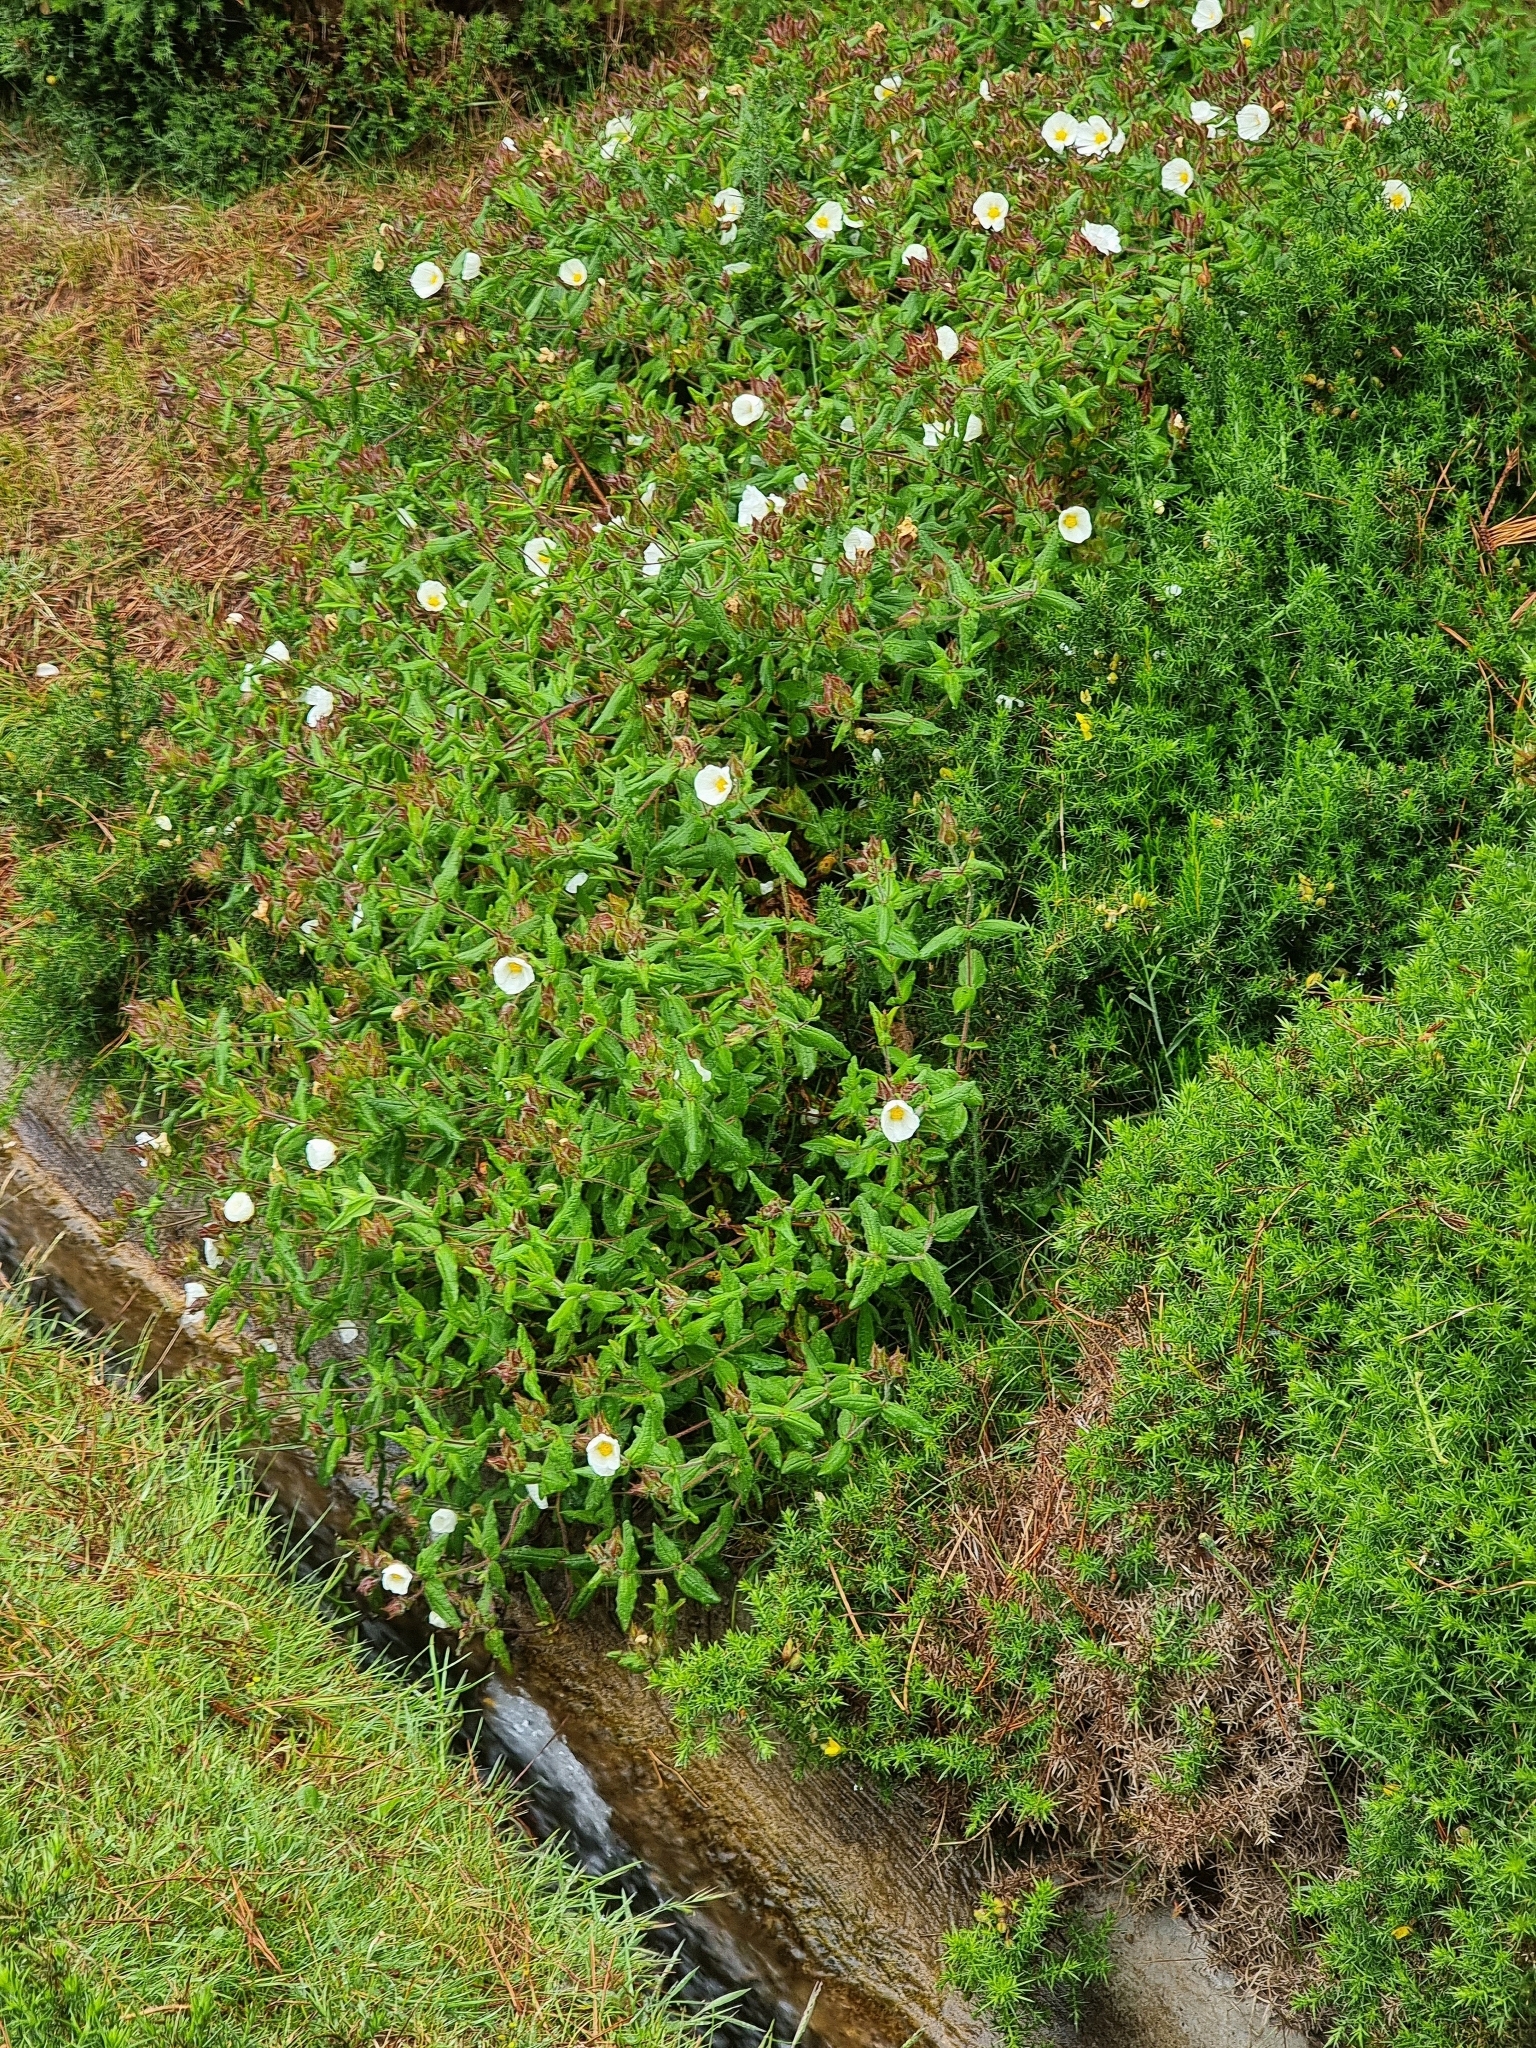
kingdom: Plantae
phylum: Tracheophyta
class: Magnoliopsida
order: Malvales
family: Cistaceae
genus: Cistus
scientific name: Cistus inflatus
